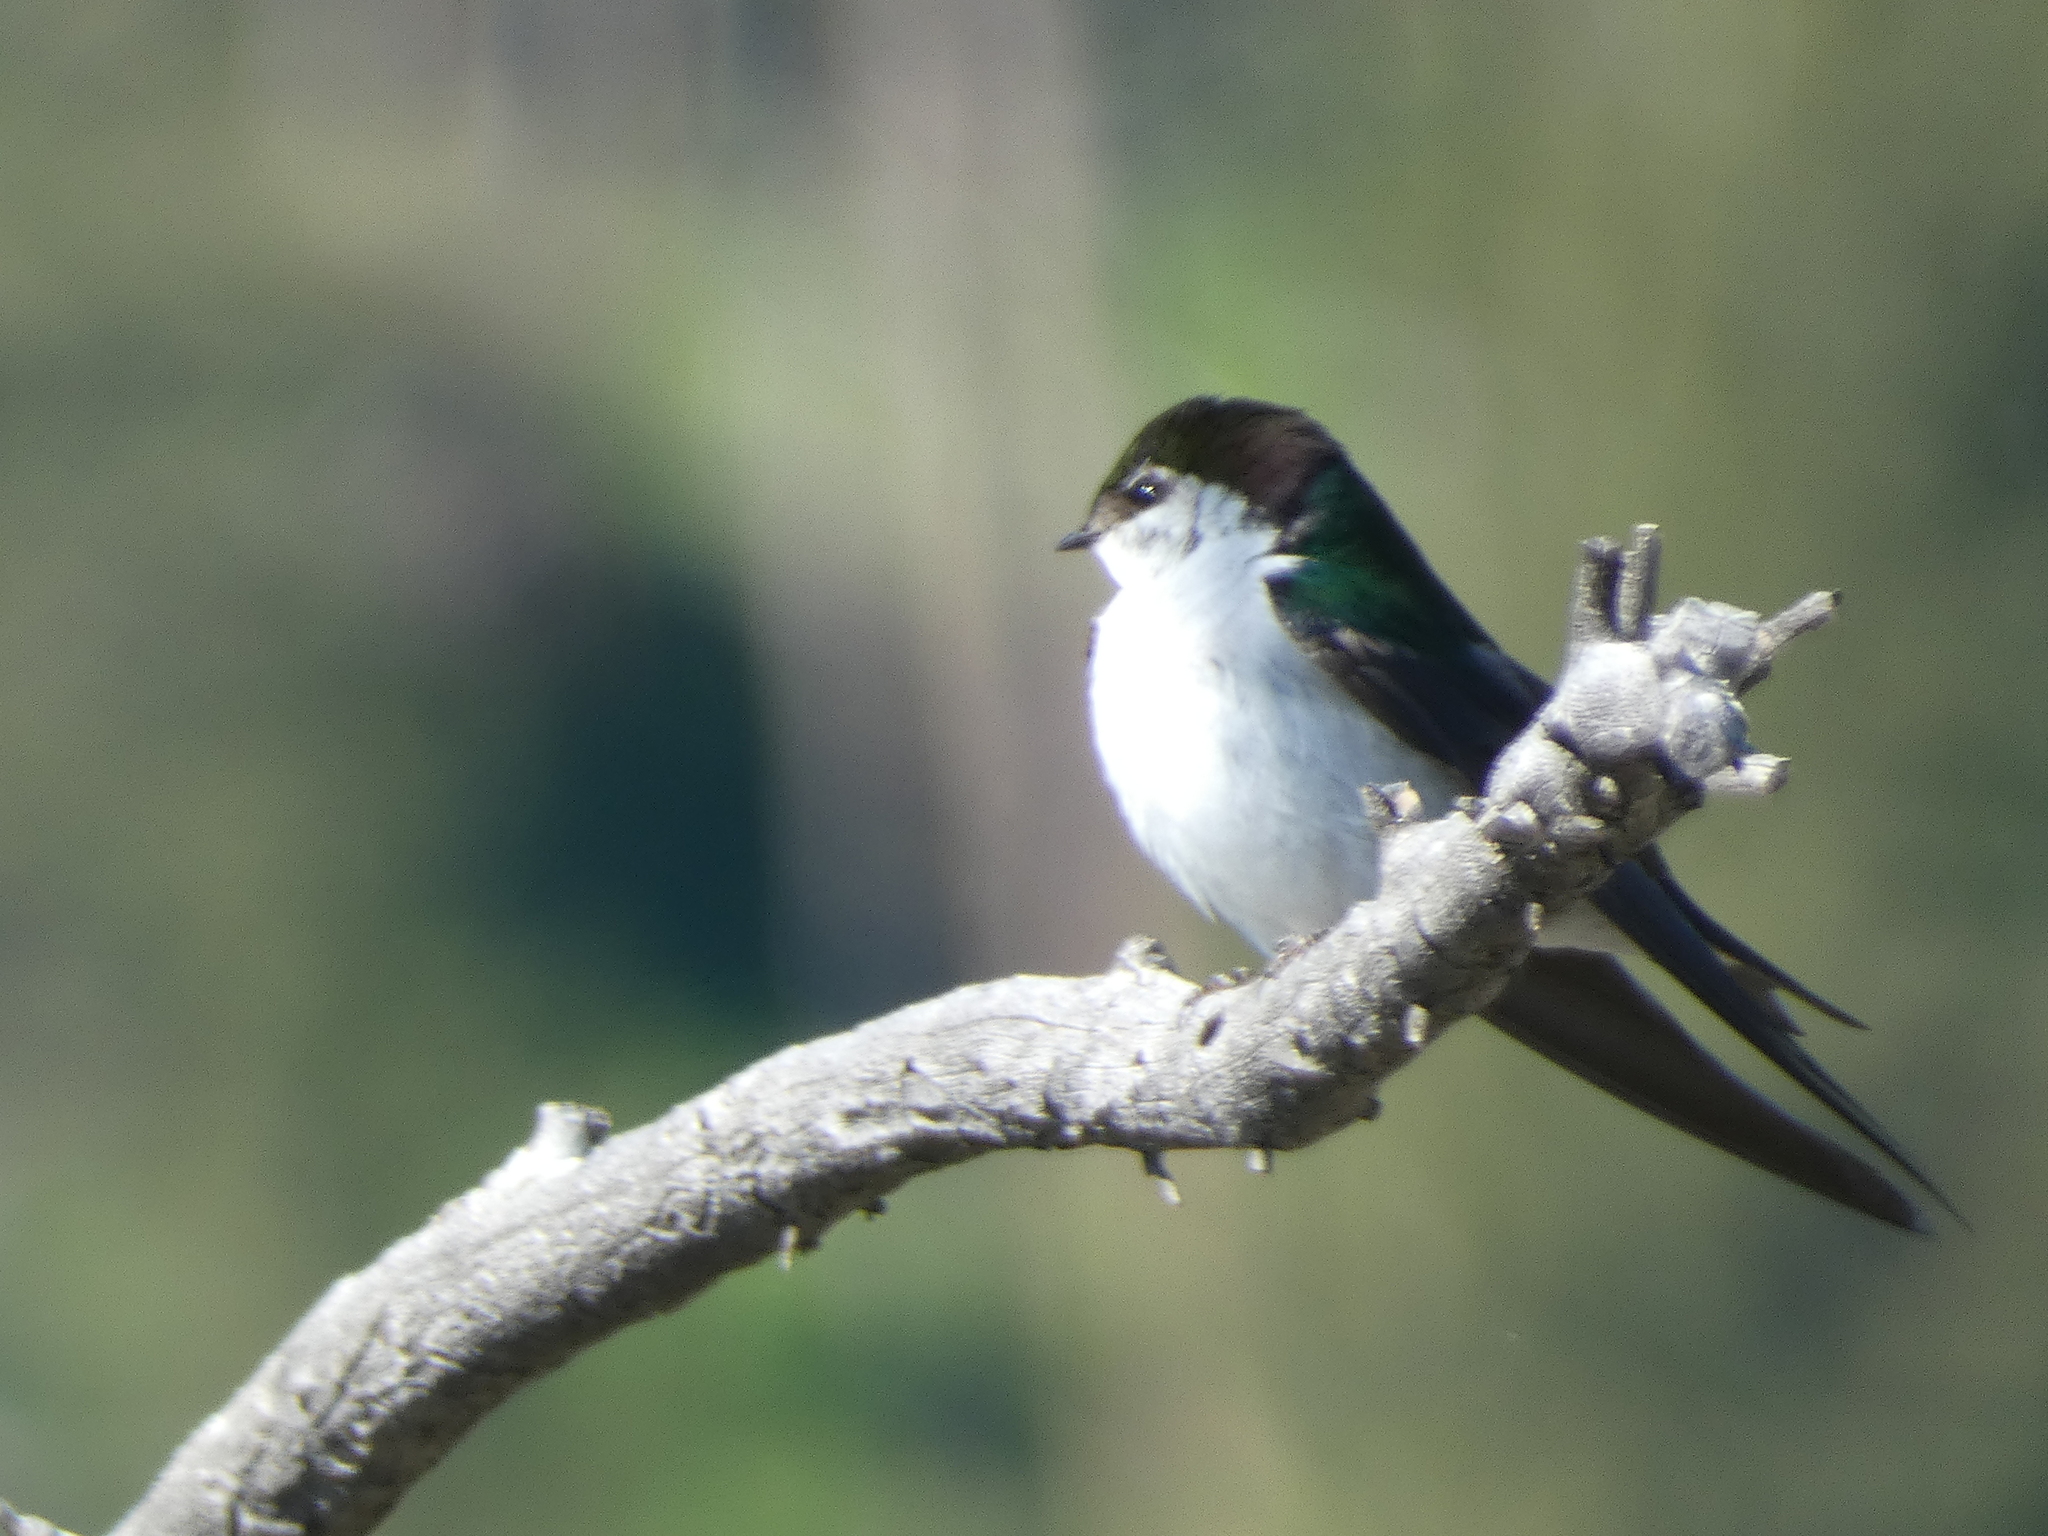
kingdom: Animalia
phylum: Chordata
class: Aves
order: Passeriformes
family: Hirundinidae
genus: Tachycineta
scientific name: Tachycineta thalassina
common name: Violet-green swallow
